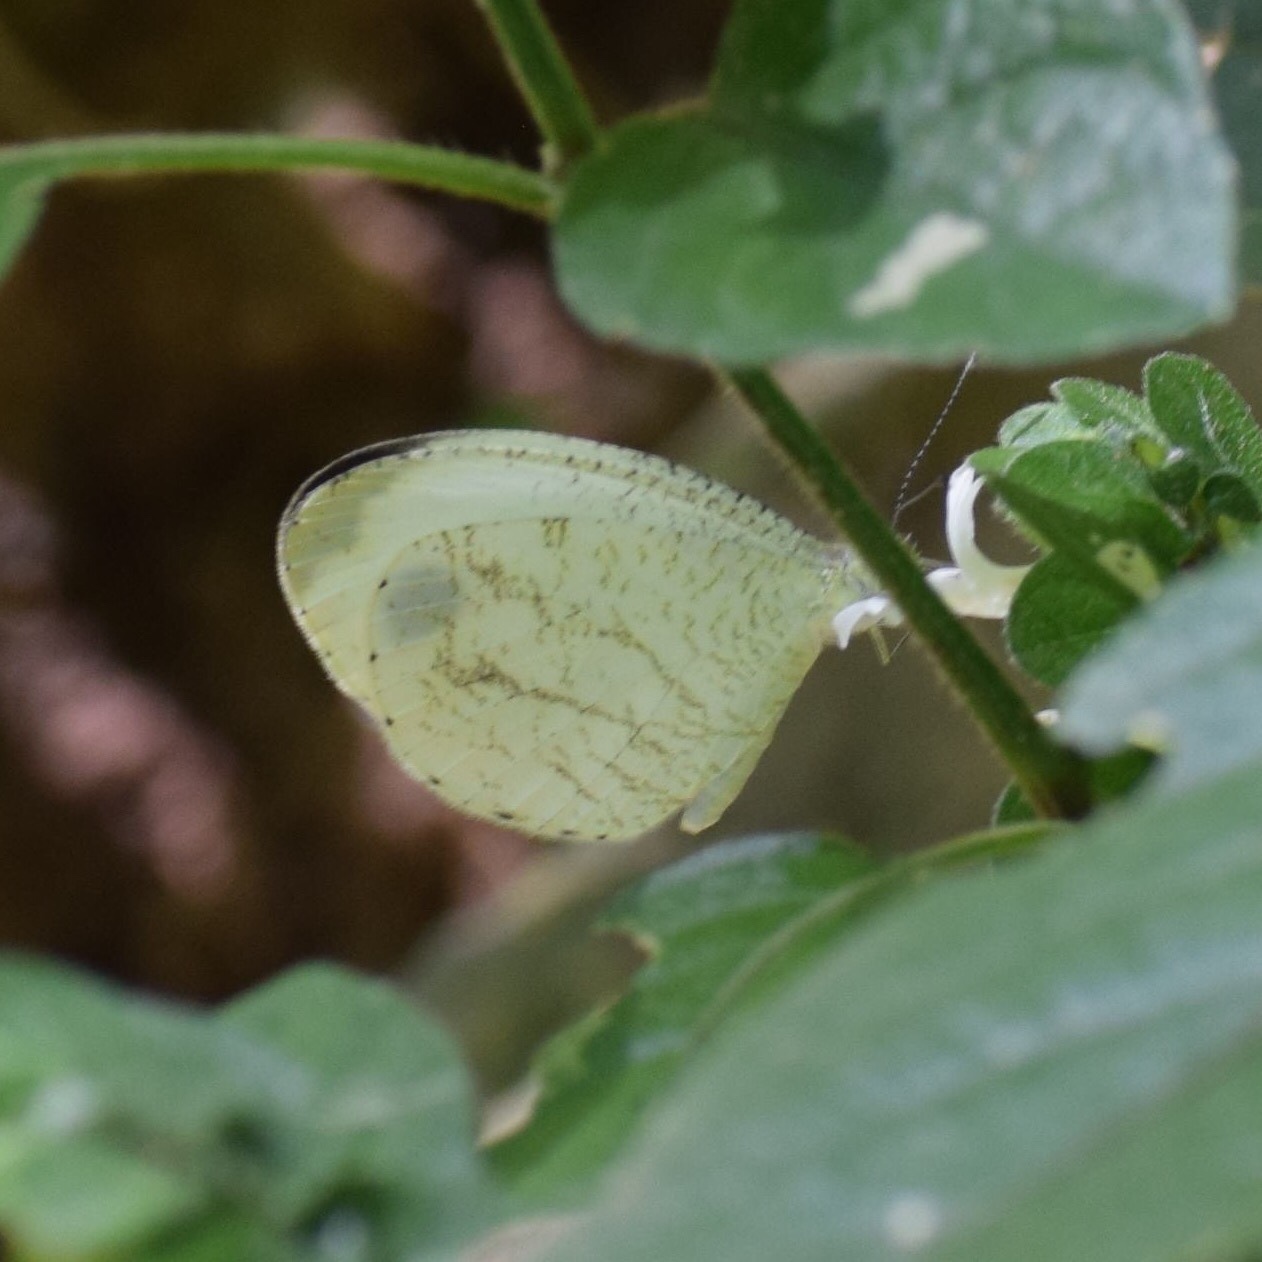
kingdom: Animalia
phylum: Arthropoda
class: Insecta
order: Lepidoptera
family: Pieridae
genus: Leptosia
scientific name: Leptosia alcesta
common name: African wood white
